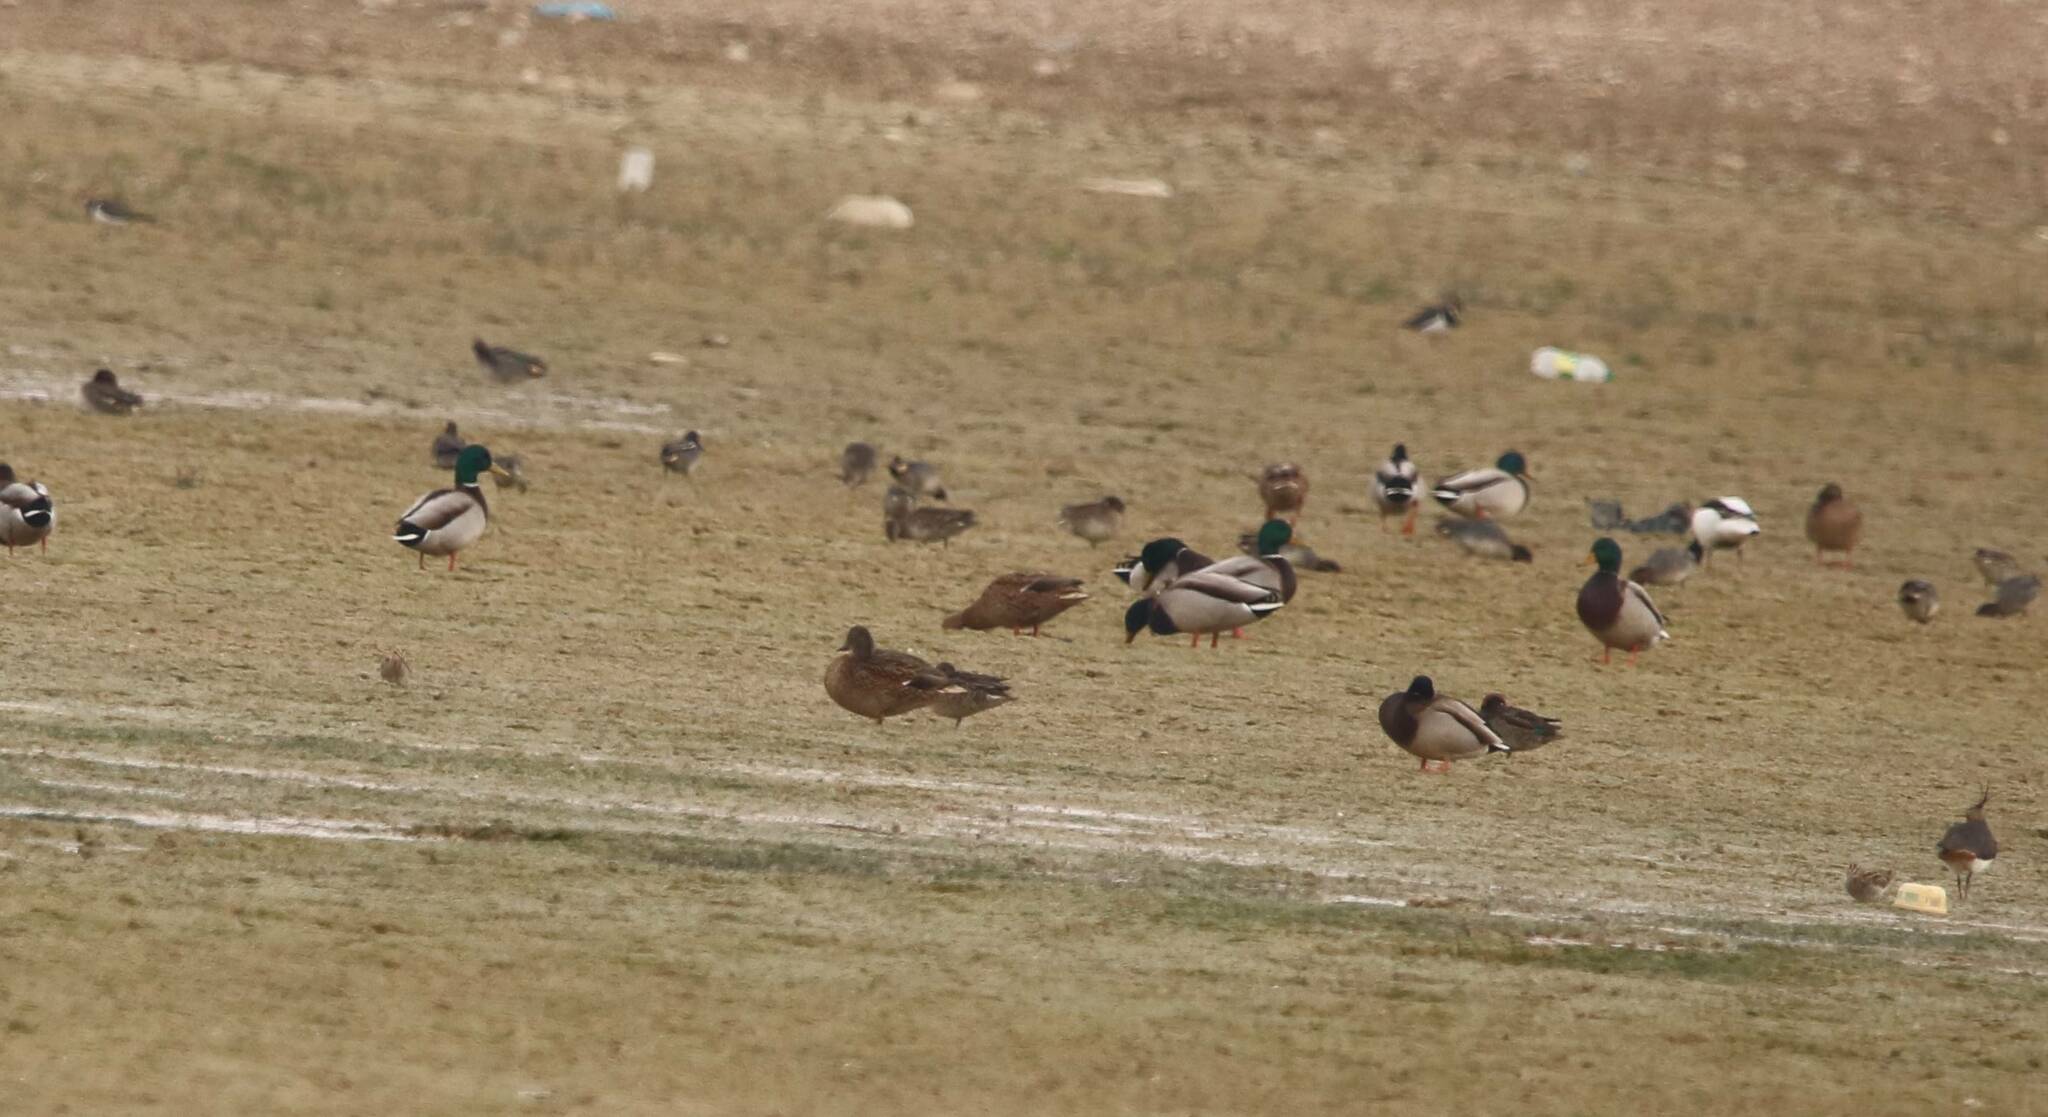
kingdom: Animalia
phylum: Chordata
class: Aves
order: Anseriformes
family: Anatidae
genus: Anas
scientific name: Anas platyrhynchos
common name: Mallard
